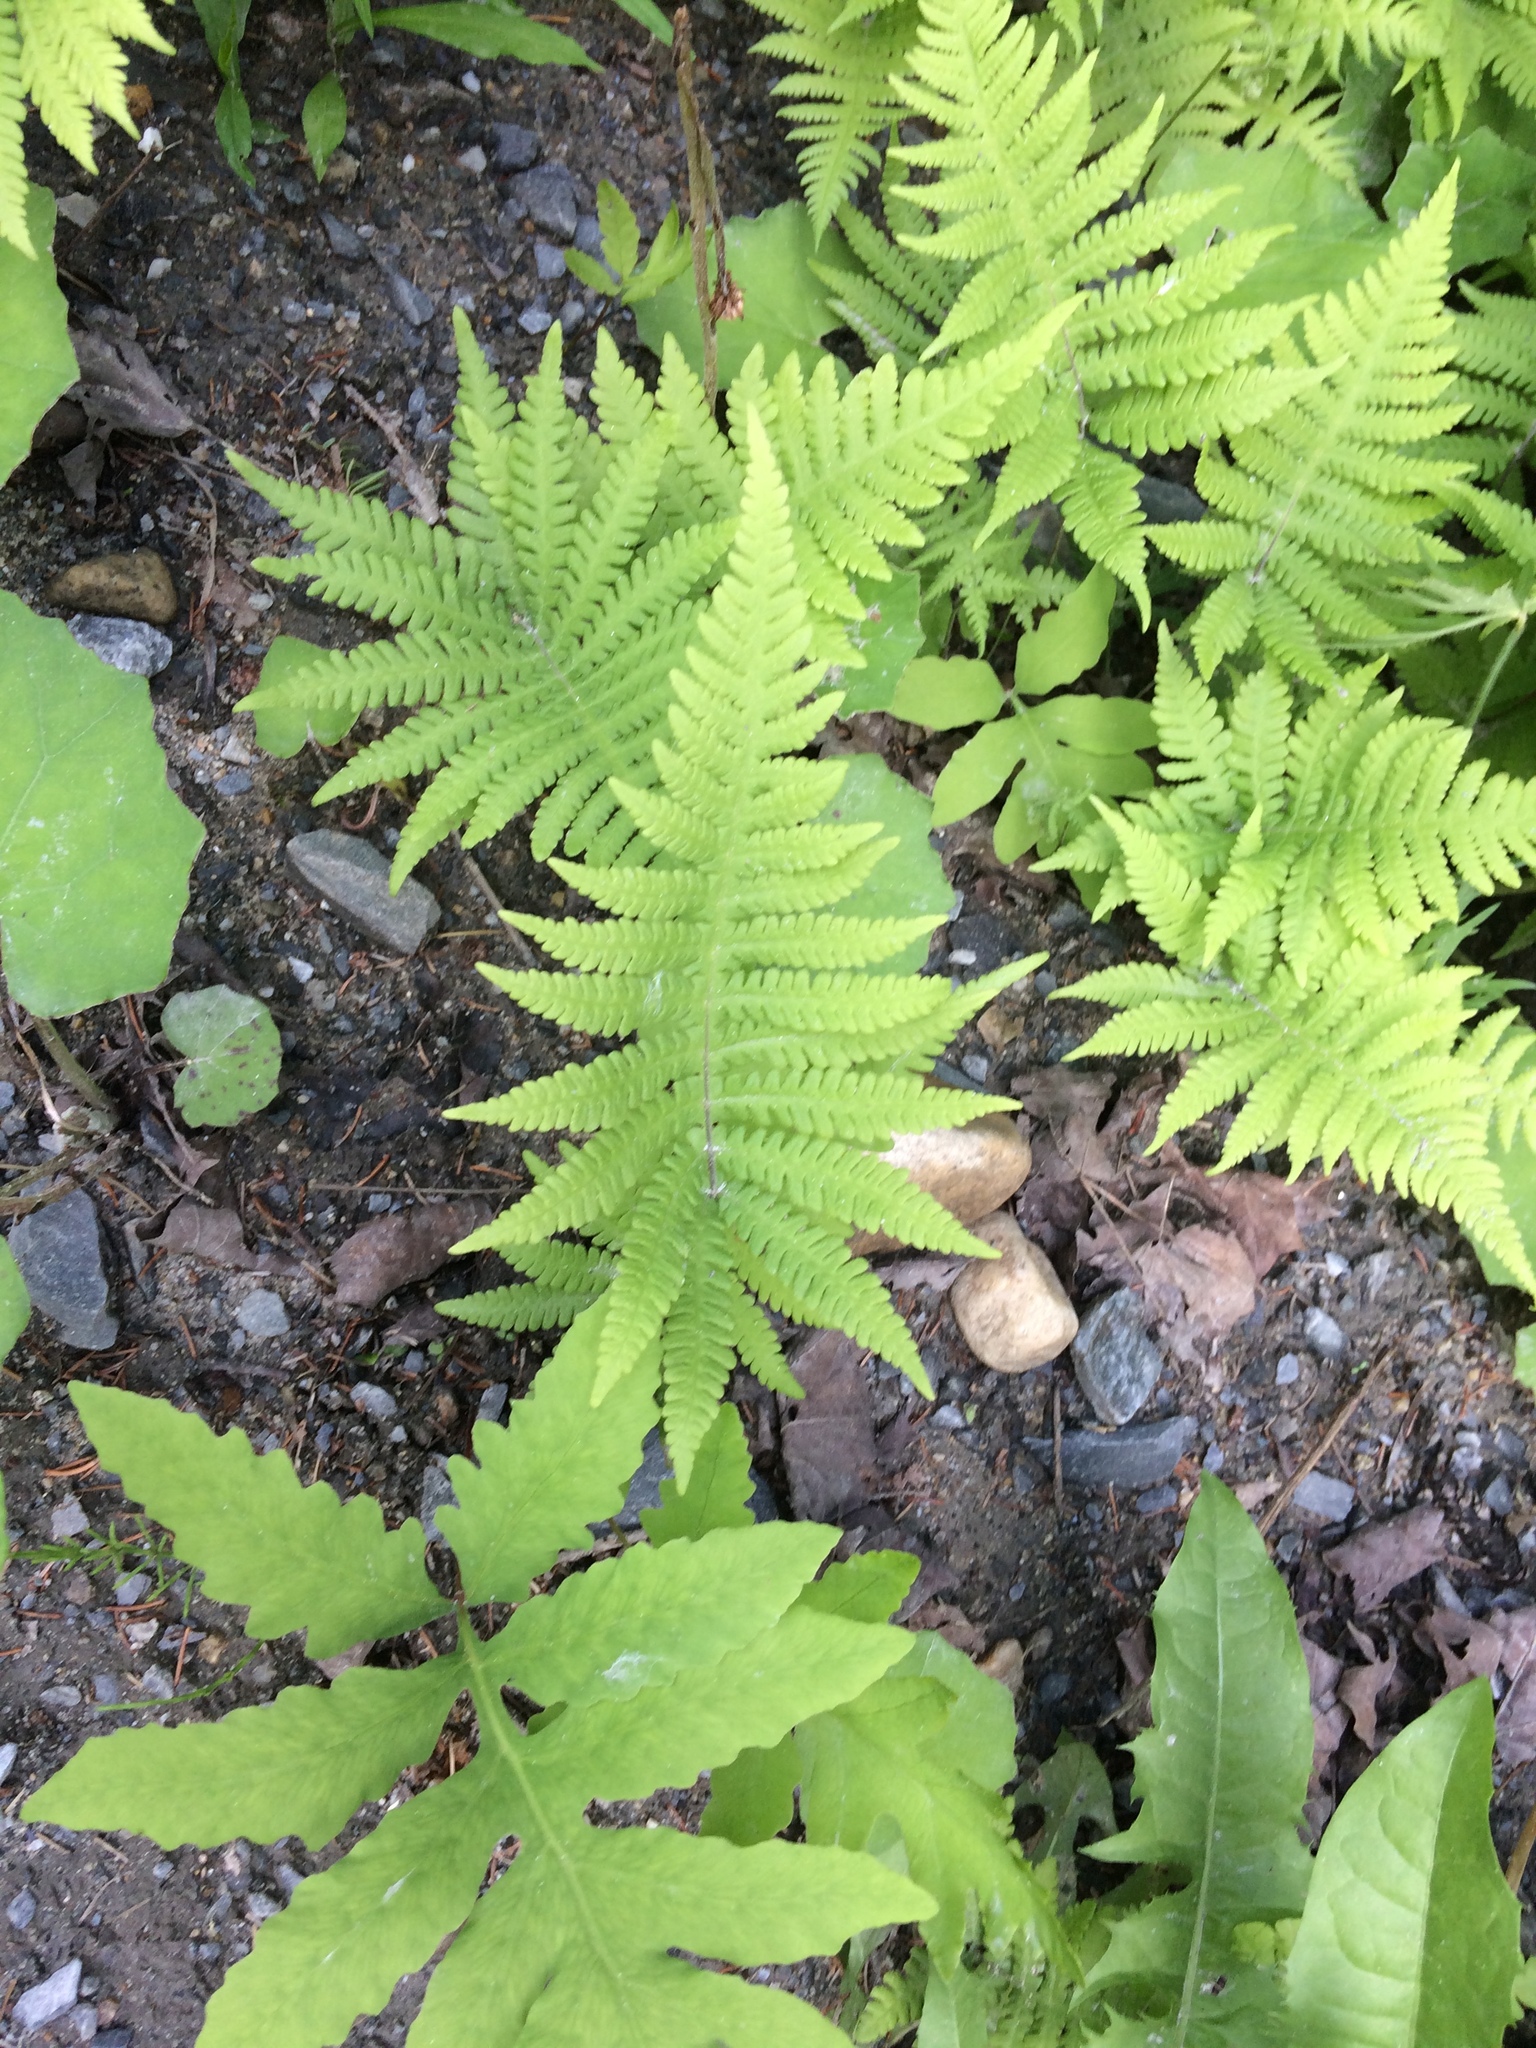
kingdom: Plantae
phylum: Tracheophyta
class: Polypodiopsida
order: Polypodiales
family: Thelypteridaceae
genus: Phegopteris
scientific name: Phegopteris connectilis
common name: Beech fern
